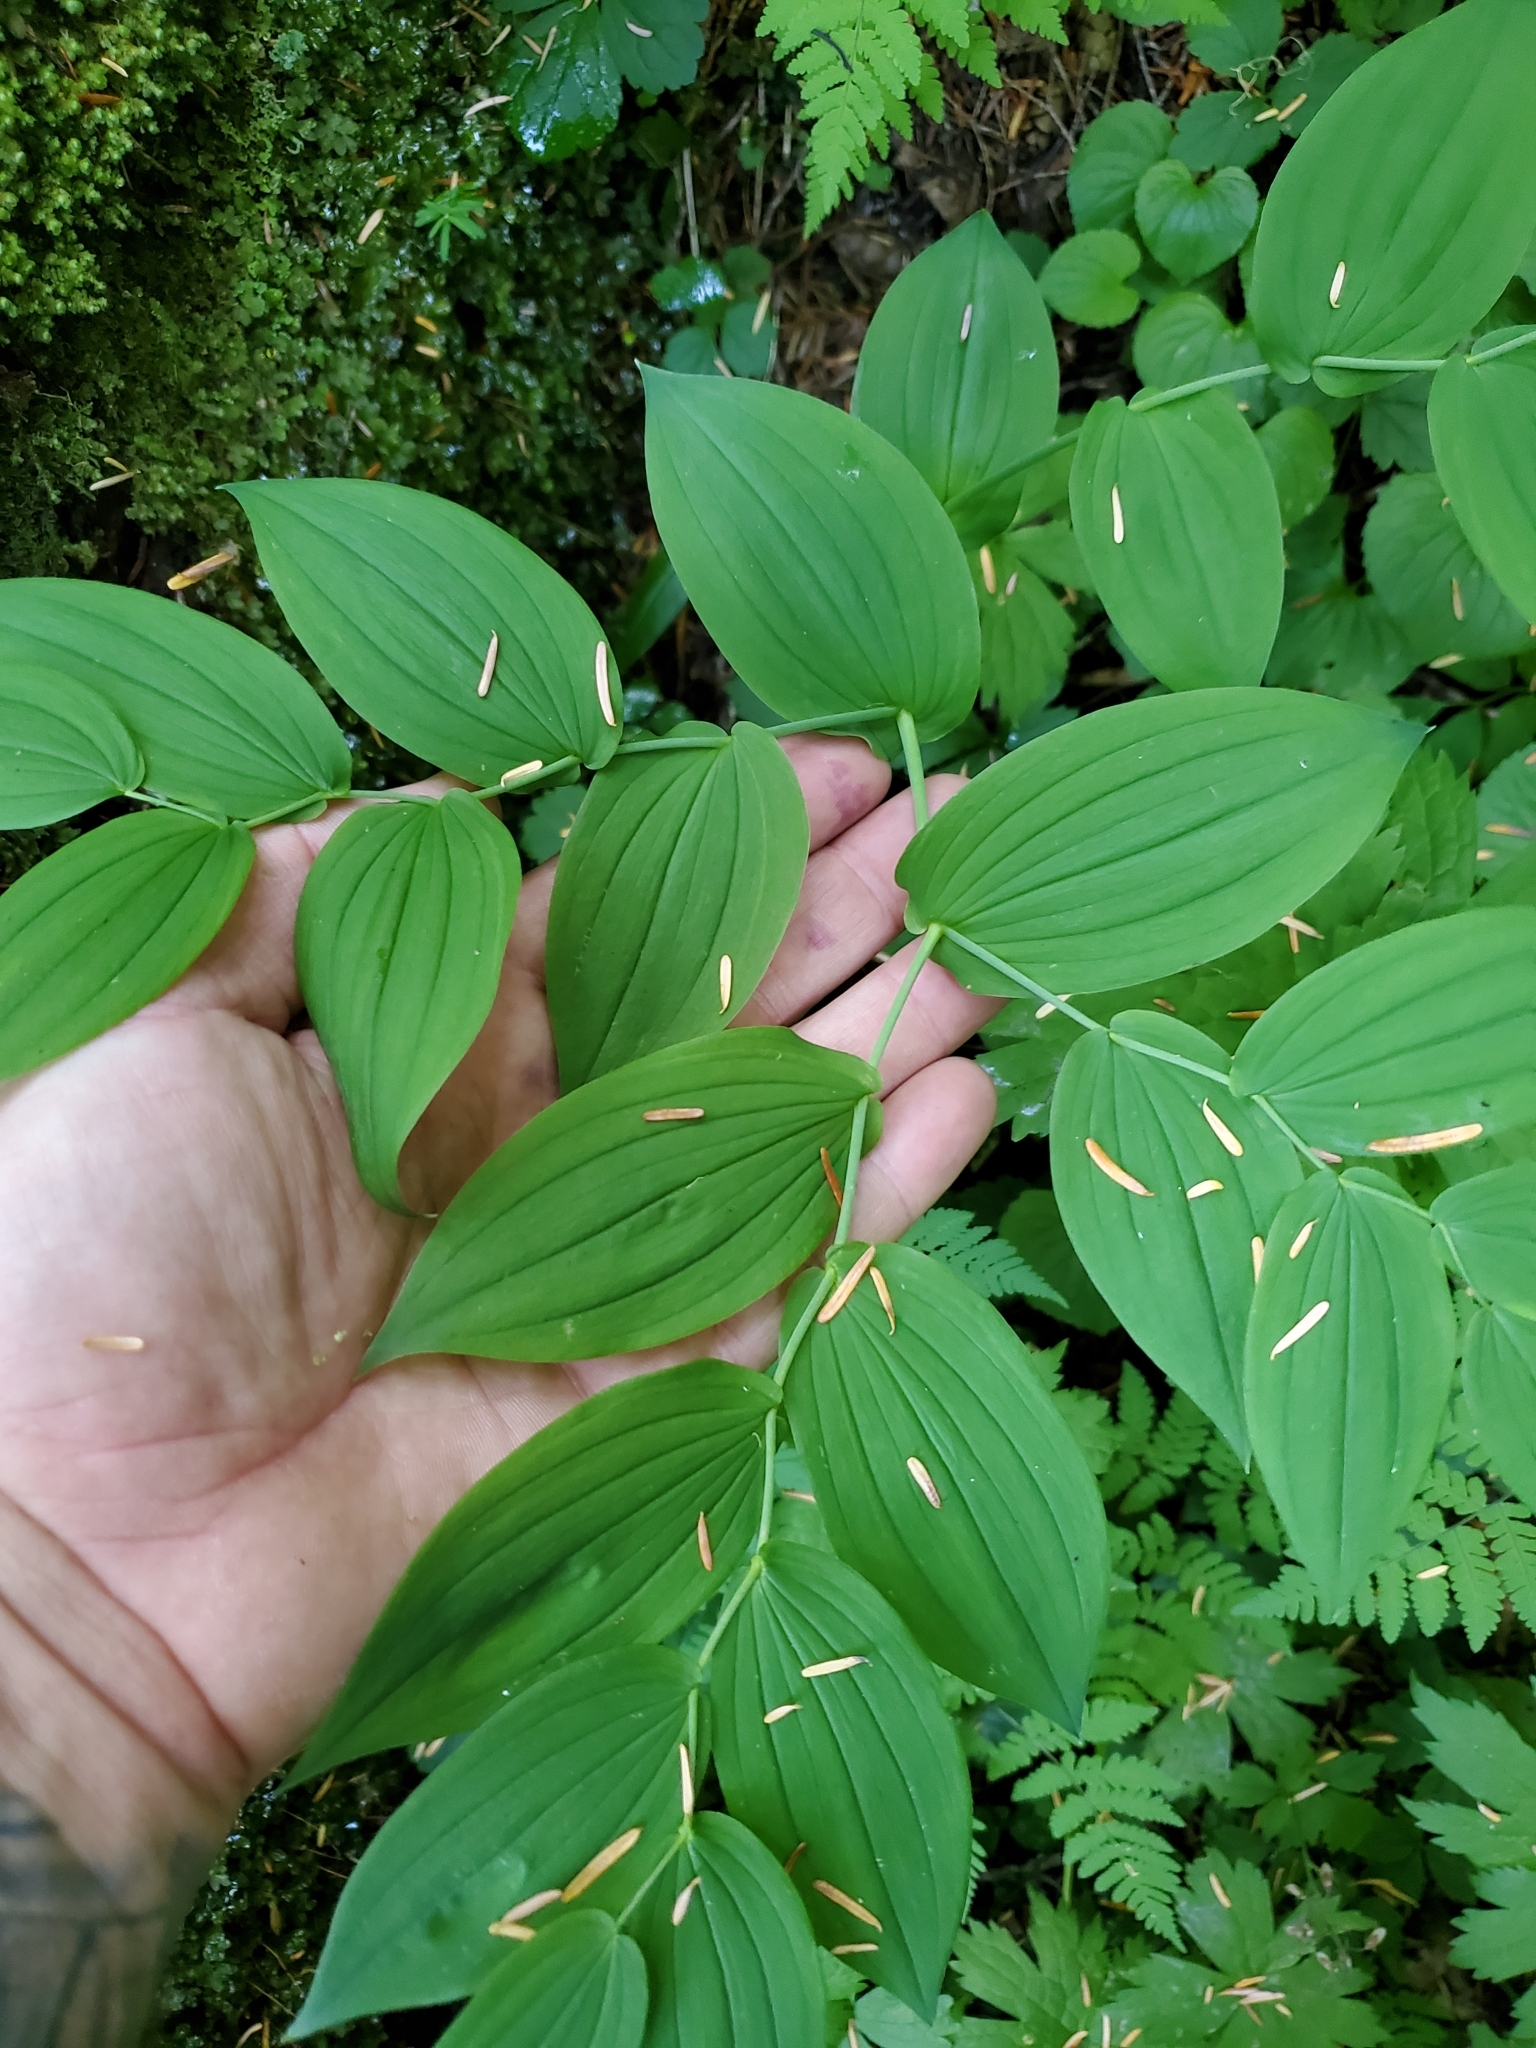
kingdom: Plantae
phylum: Tracheophyta
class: Liliopsida
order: Liliales
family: Liliaceae
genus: Streptopus
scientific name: Streptopus amplexifolius
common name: Clasp twisted stalk
